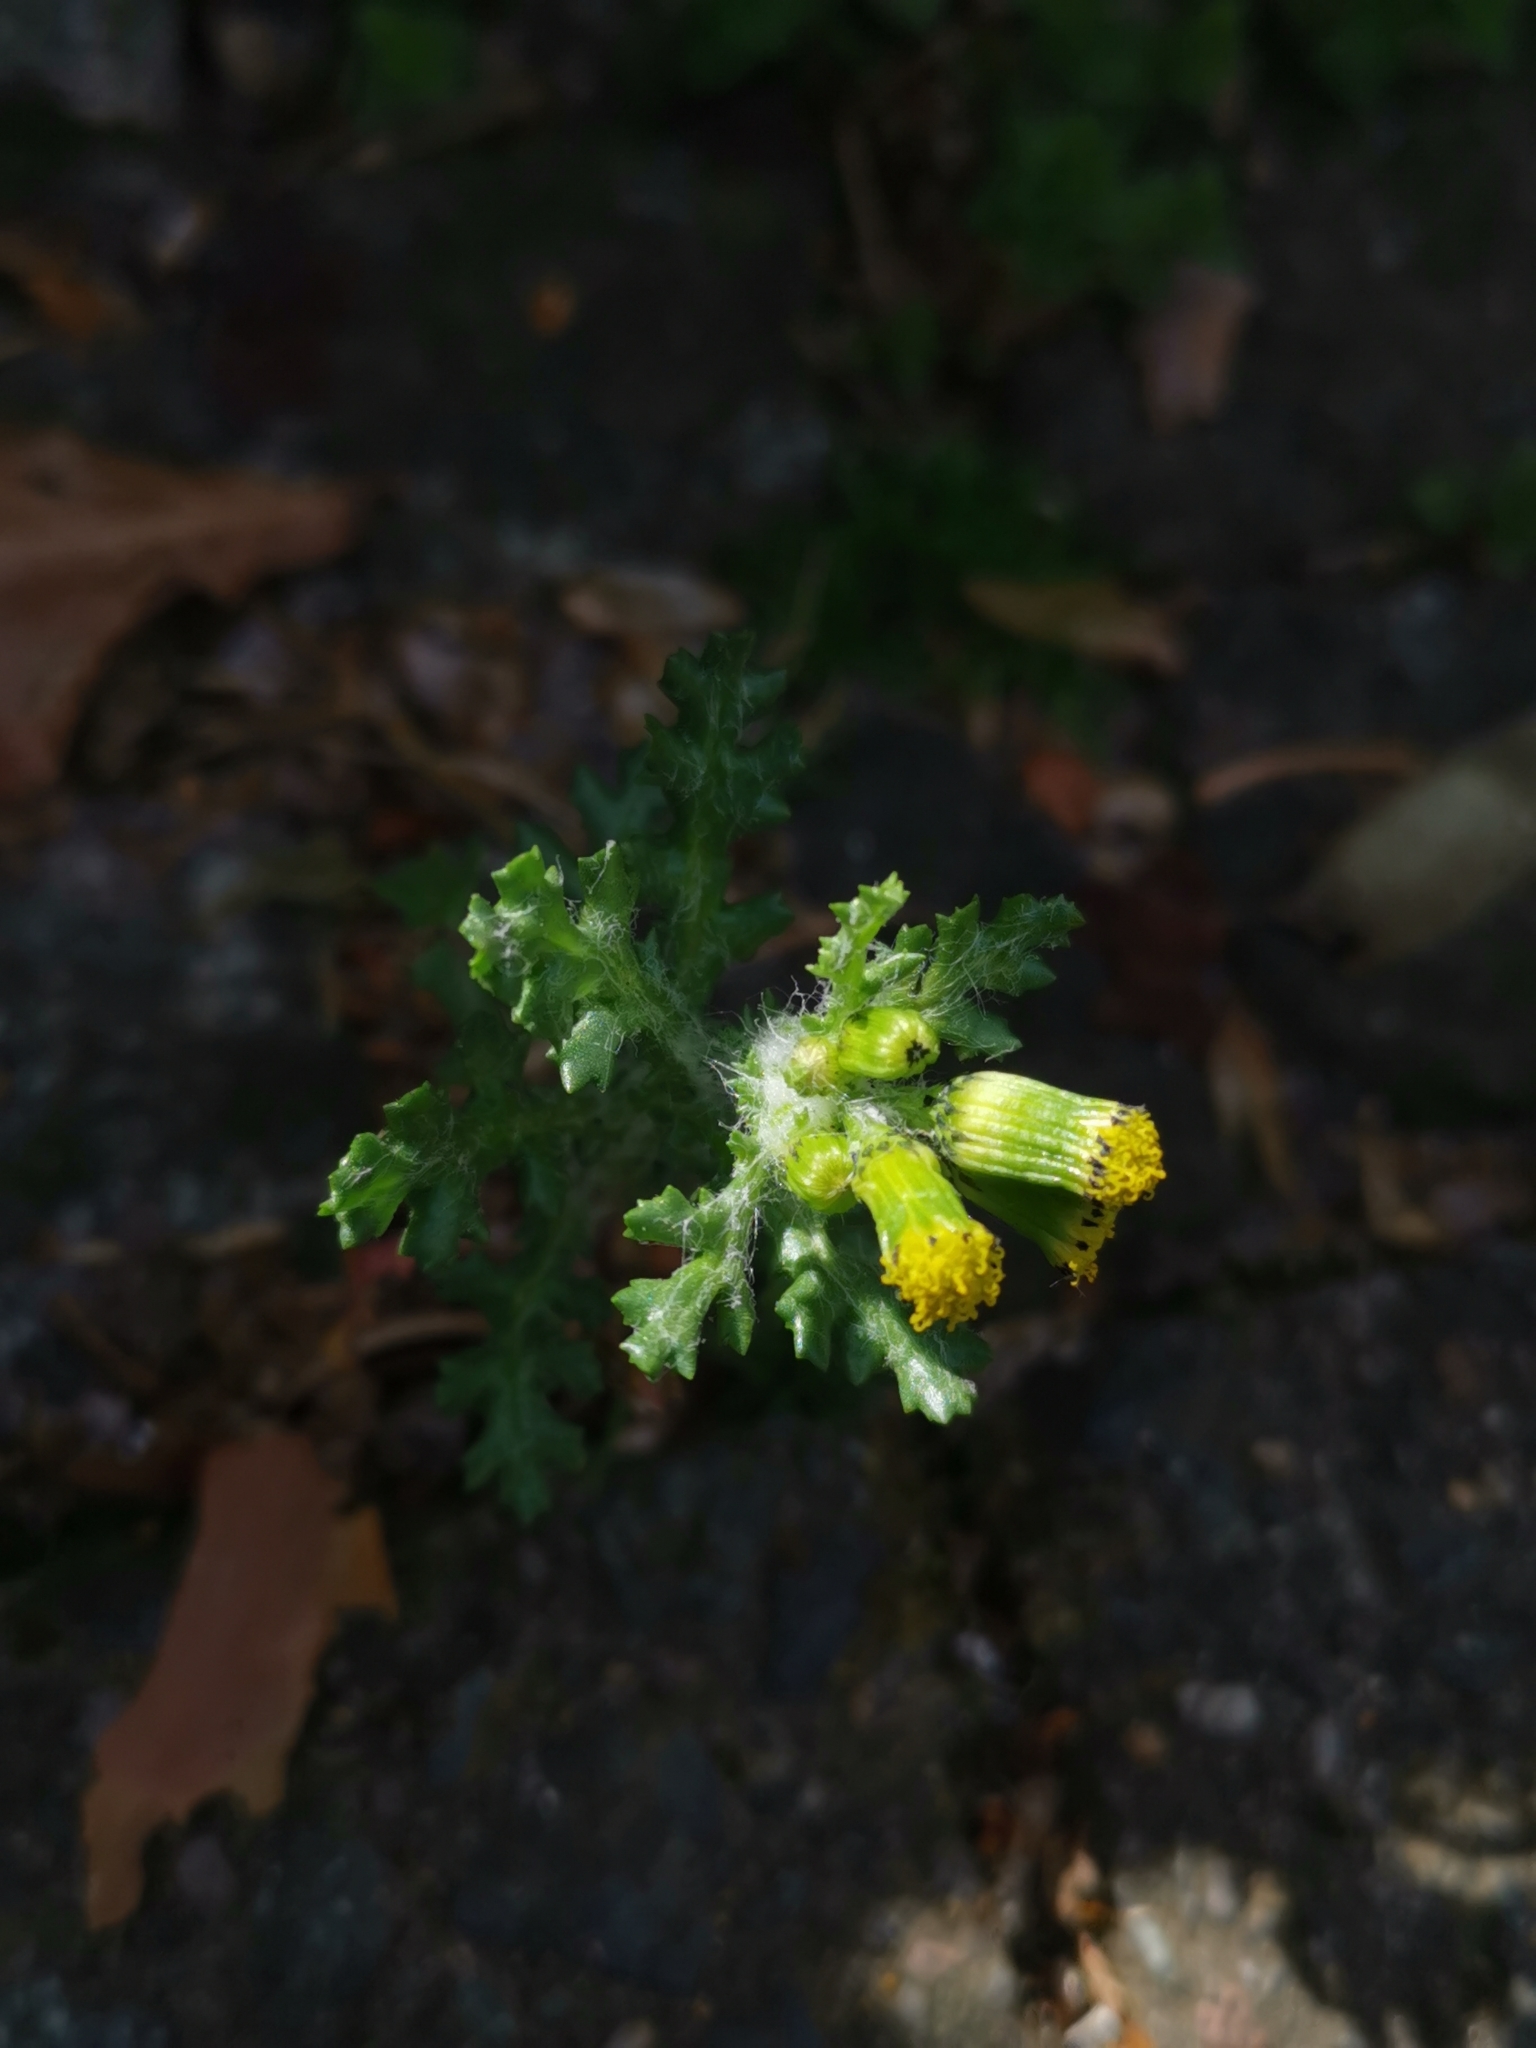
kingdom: Plantae
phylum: Tracheophyta
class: Magnoliopsida
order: Asterales
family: Asteraceae
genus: Senecio
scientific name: Senecio vulgaris
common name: Old-man-in-the-spring
